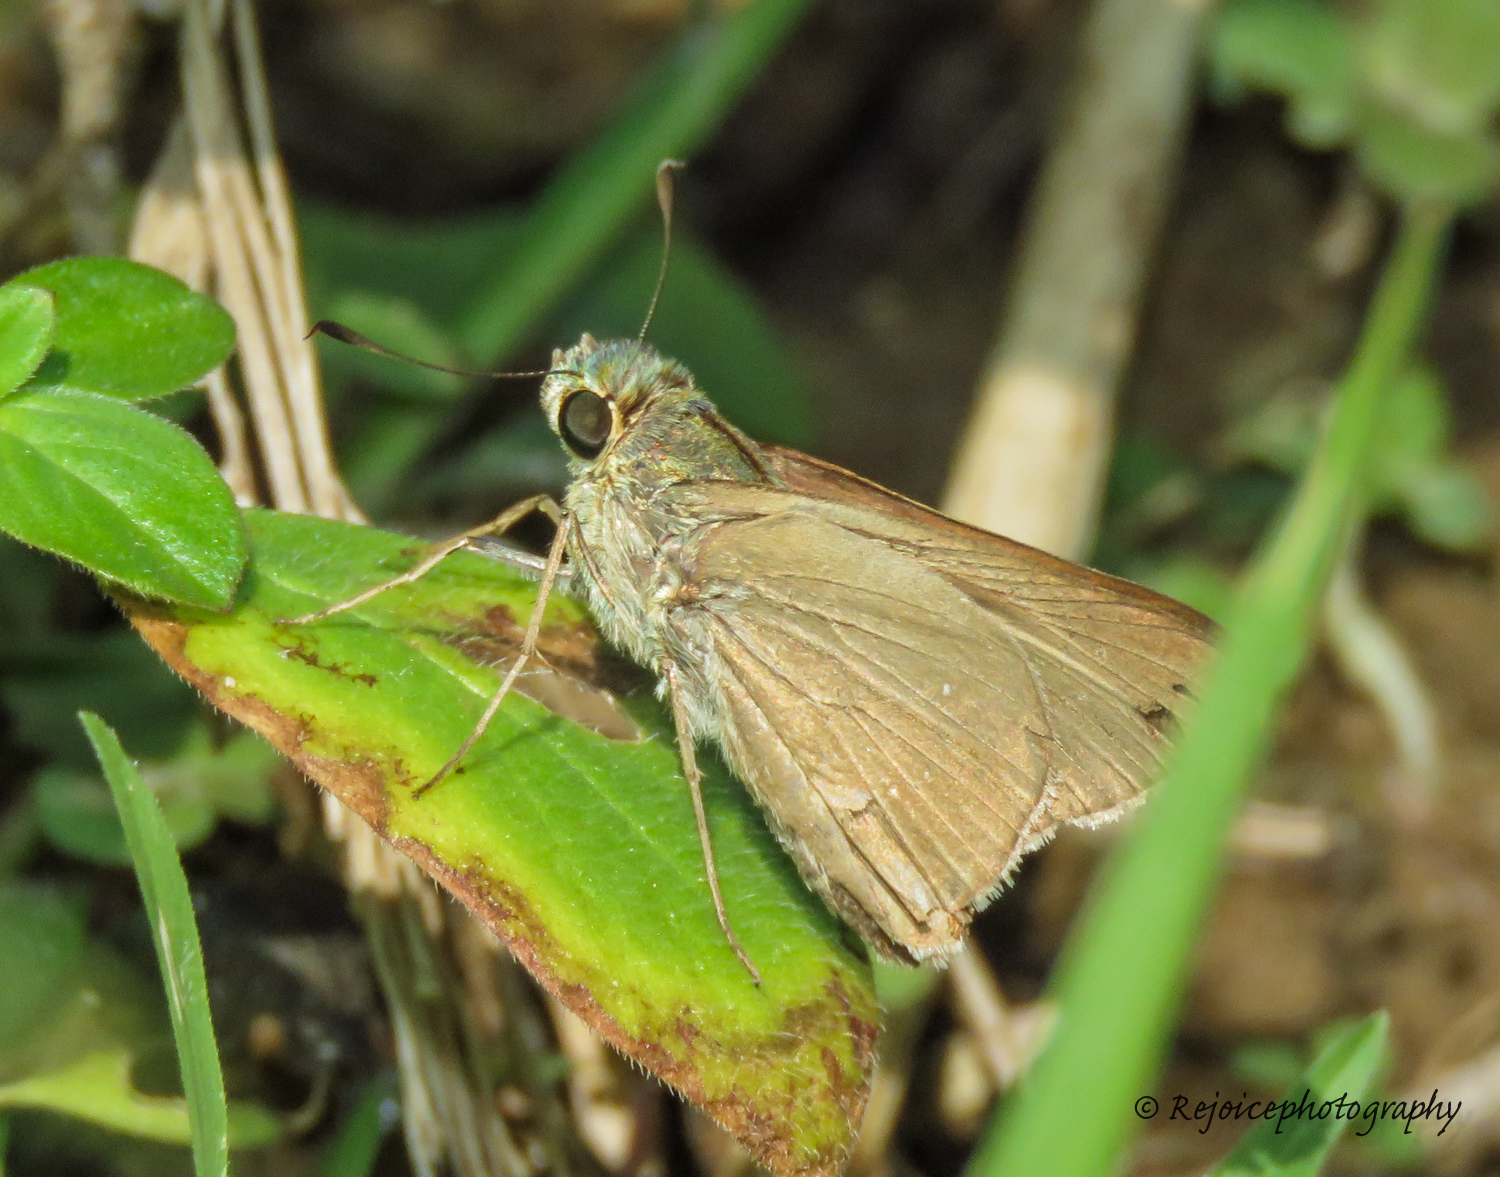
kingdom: Animalia
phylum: Arthropoda
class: Insecta
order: Lepidoptera
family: Hesperiidae
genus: Pseudoborbo
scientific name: Pseudoborbo bevani
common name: Bevan's swift
